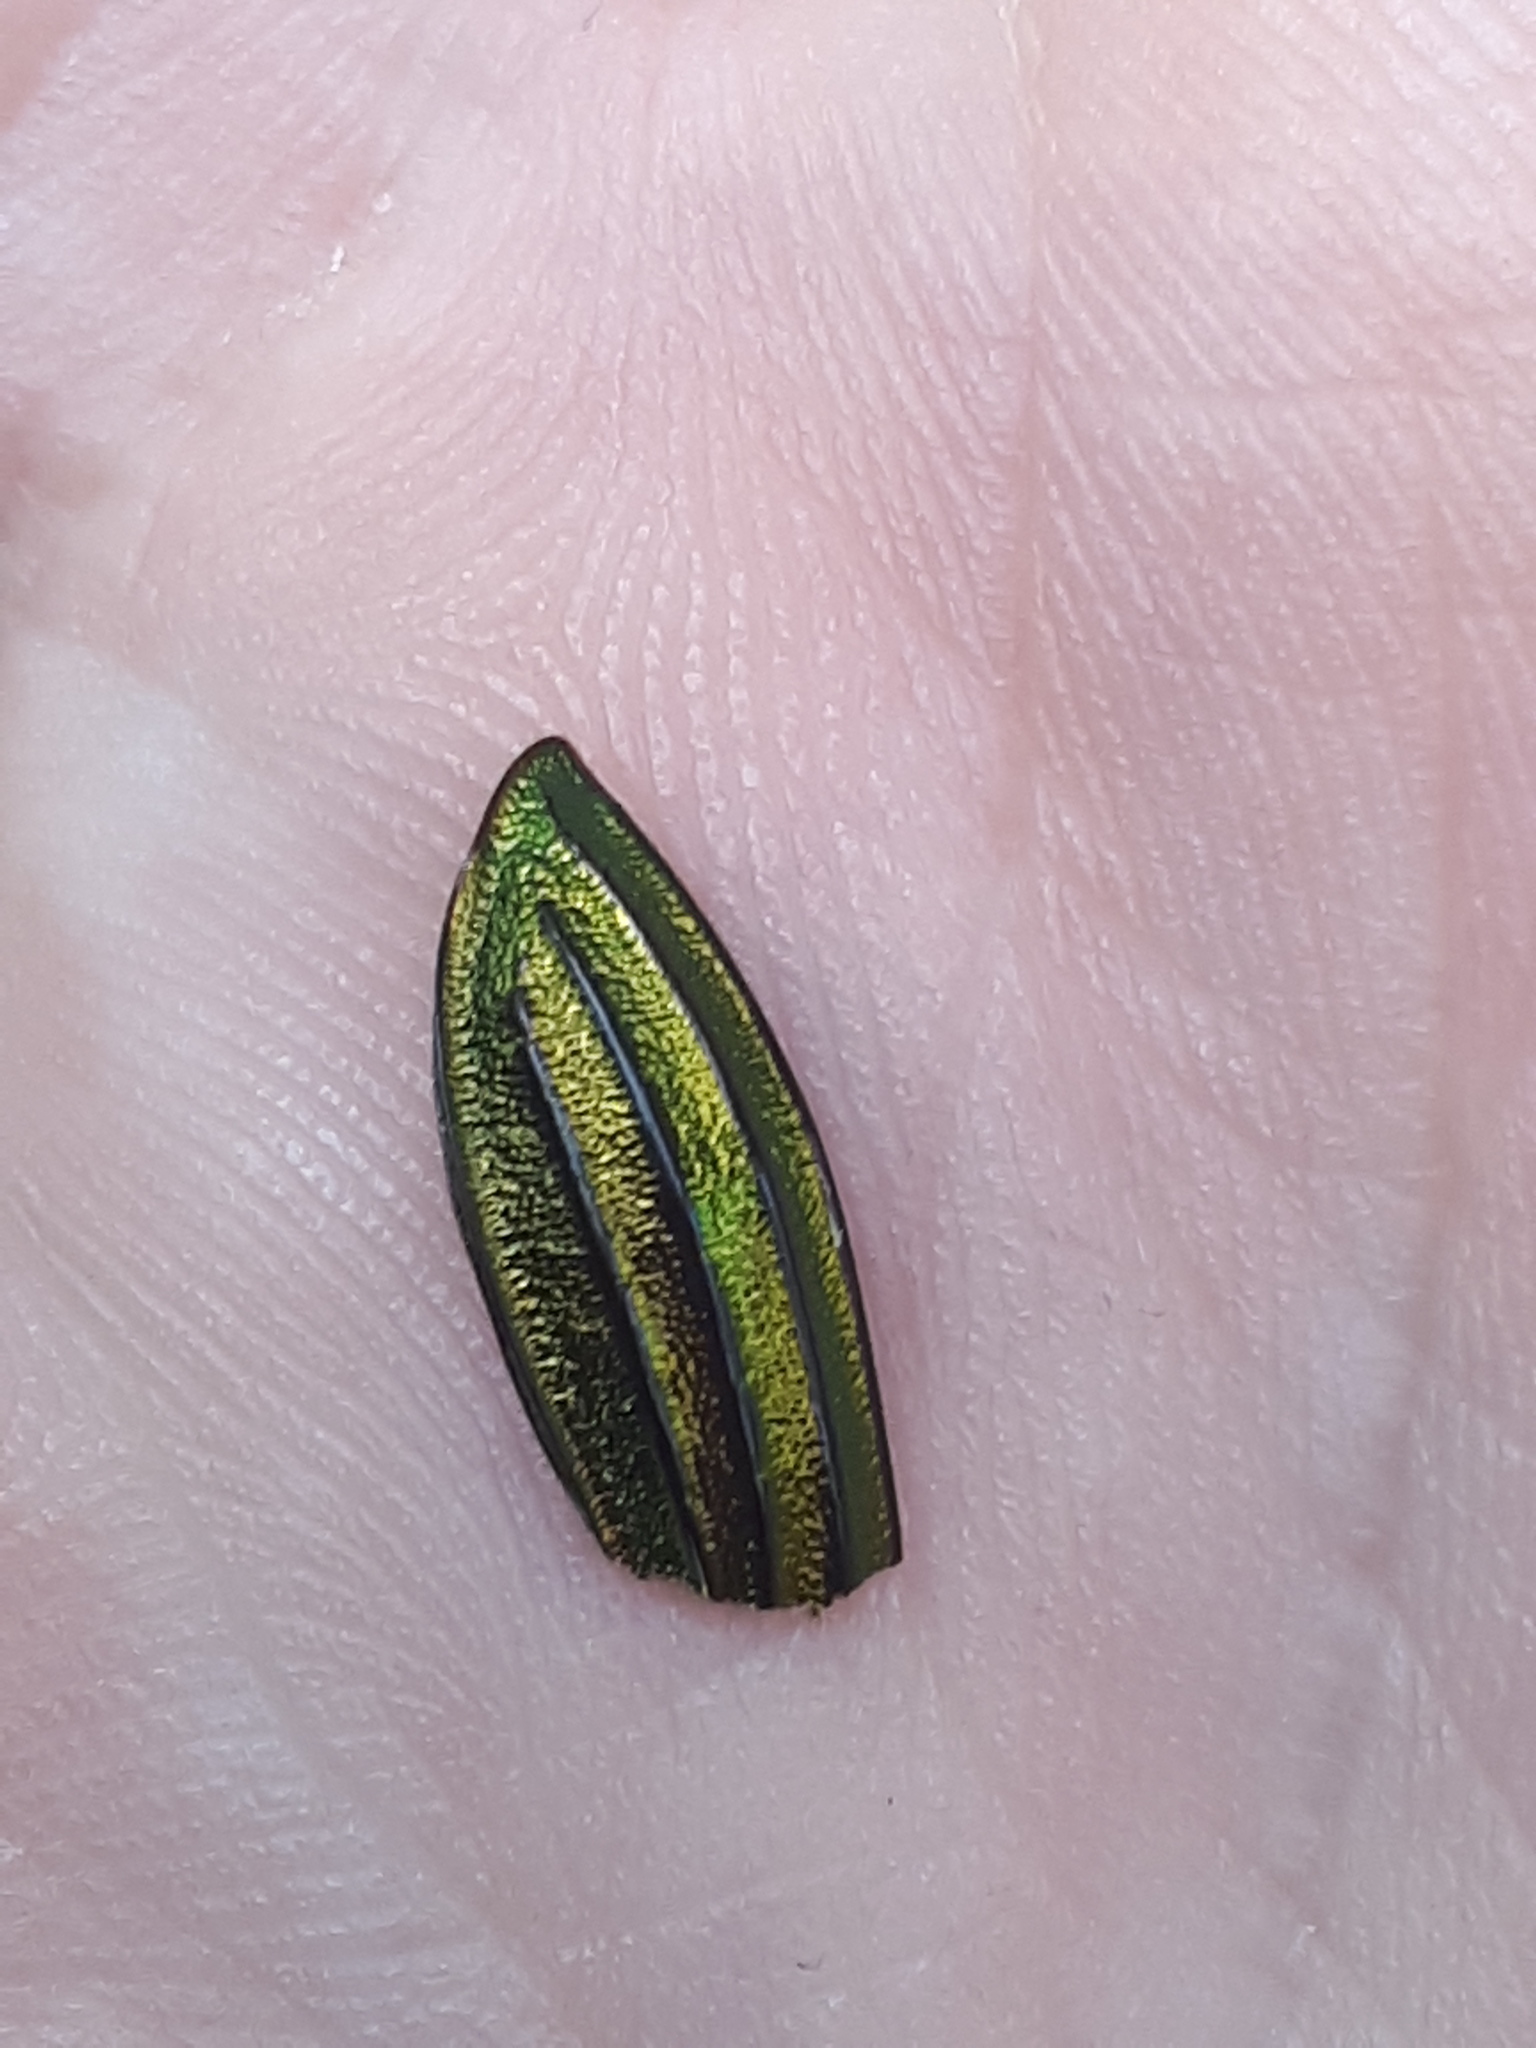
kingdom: Animalia
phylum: Arthropoda
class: Insecta
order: Coleoptera
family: Carabidae
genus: Carabus
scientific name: Carabus auronitens
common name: Carabus auronitens
